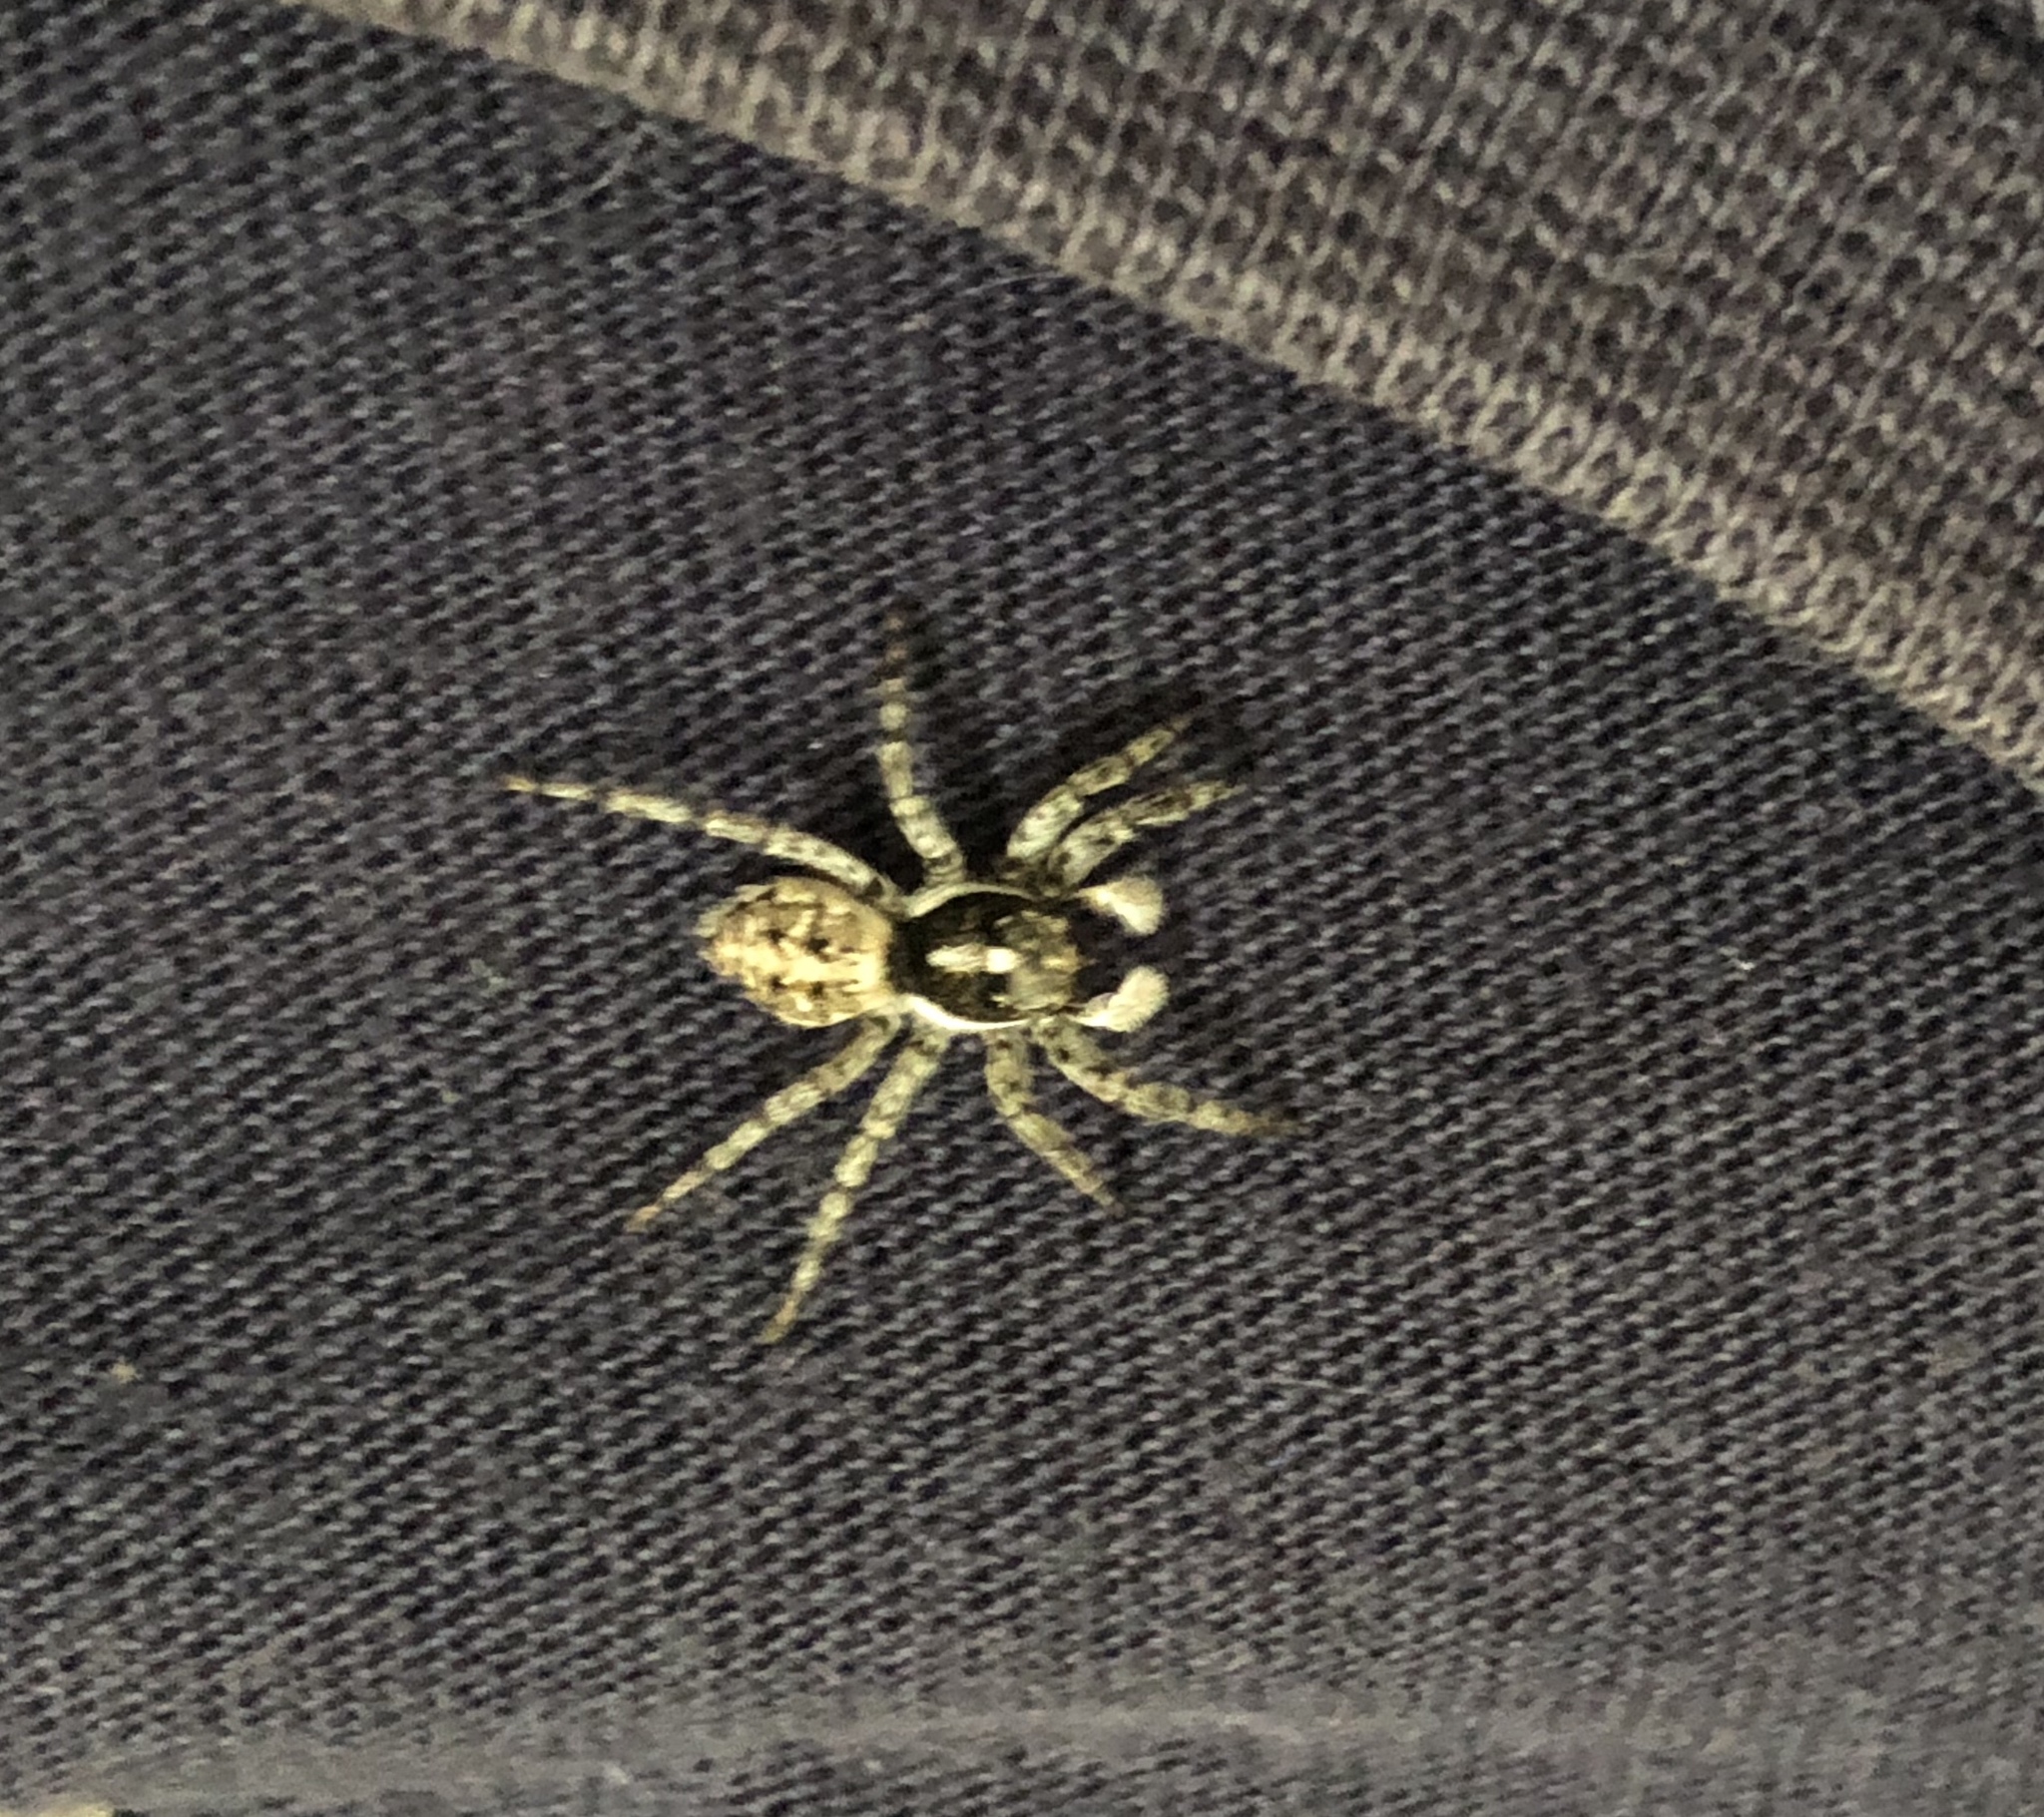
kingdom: Animalia
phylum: Arthropoda
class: Arachnida
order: Araneae
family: Salticidae
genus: Menemerus
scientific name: Menemerus semilimbatus
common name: Jumping spider
